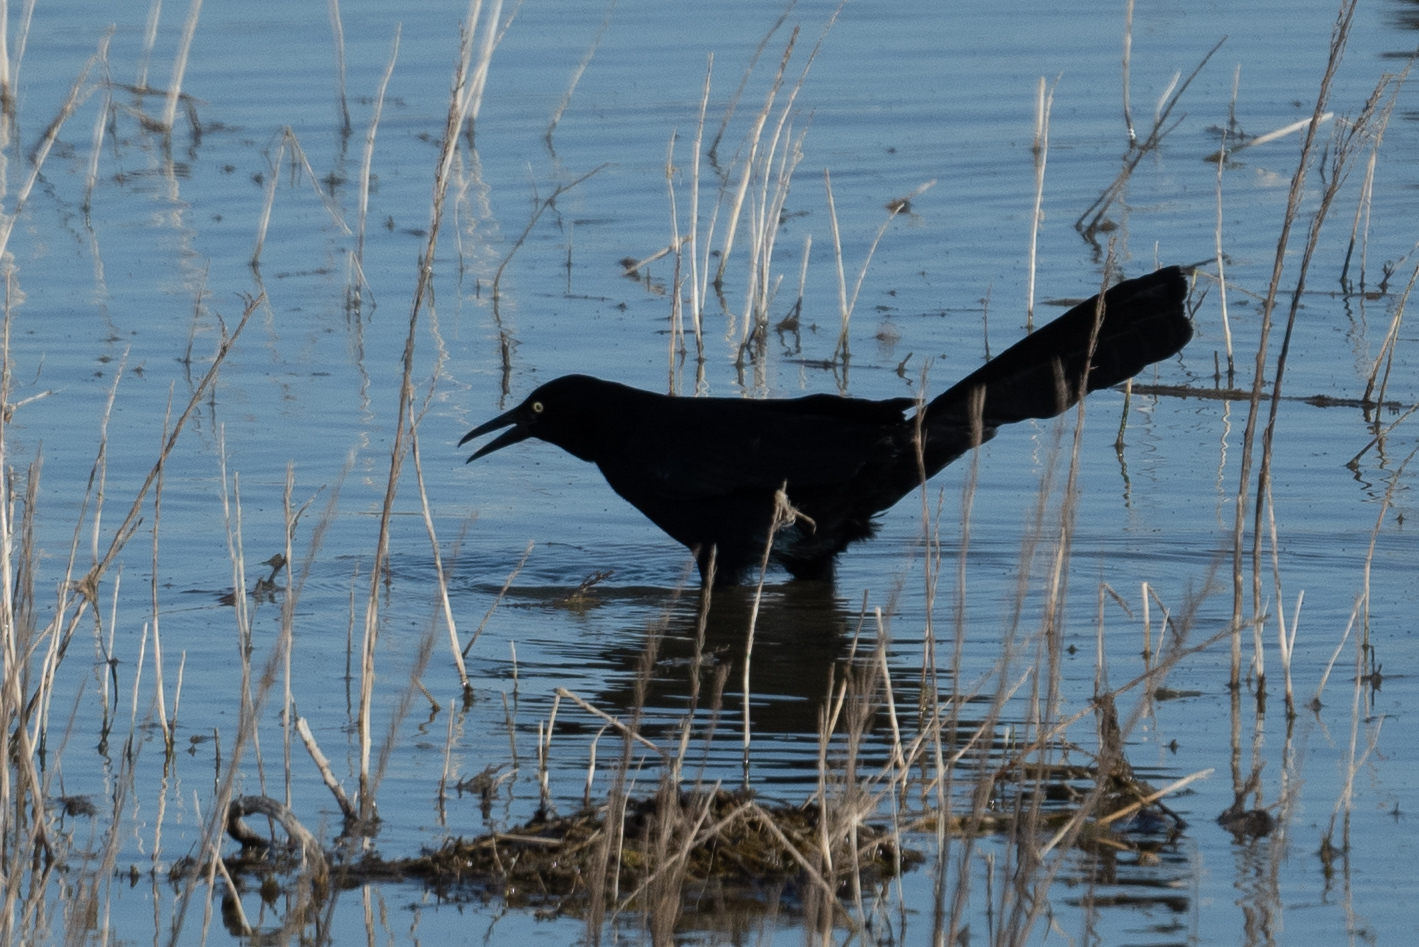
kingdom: Animalia
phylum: Chordata
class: Aves
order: Passeriformes
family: Icteridae
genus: Quiscalus
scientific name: Quiscalus mexicanus
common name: Great-tailed grackle
